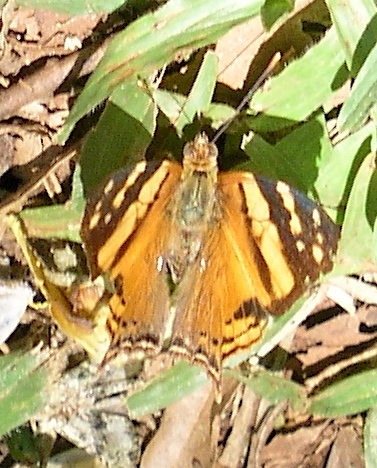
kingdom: Animalia
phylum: Arthropoda
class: Insecta
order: Lepidoptera
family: Nymphalidae
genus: Hypanartia
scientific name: Hypanartia lethe
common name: Orange mapwing
